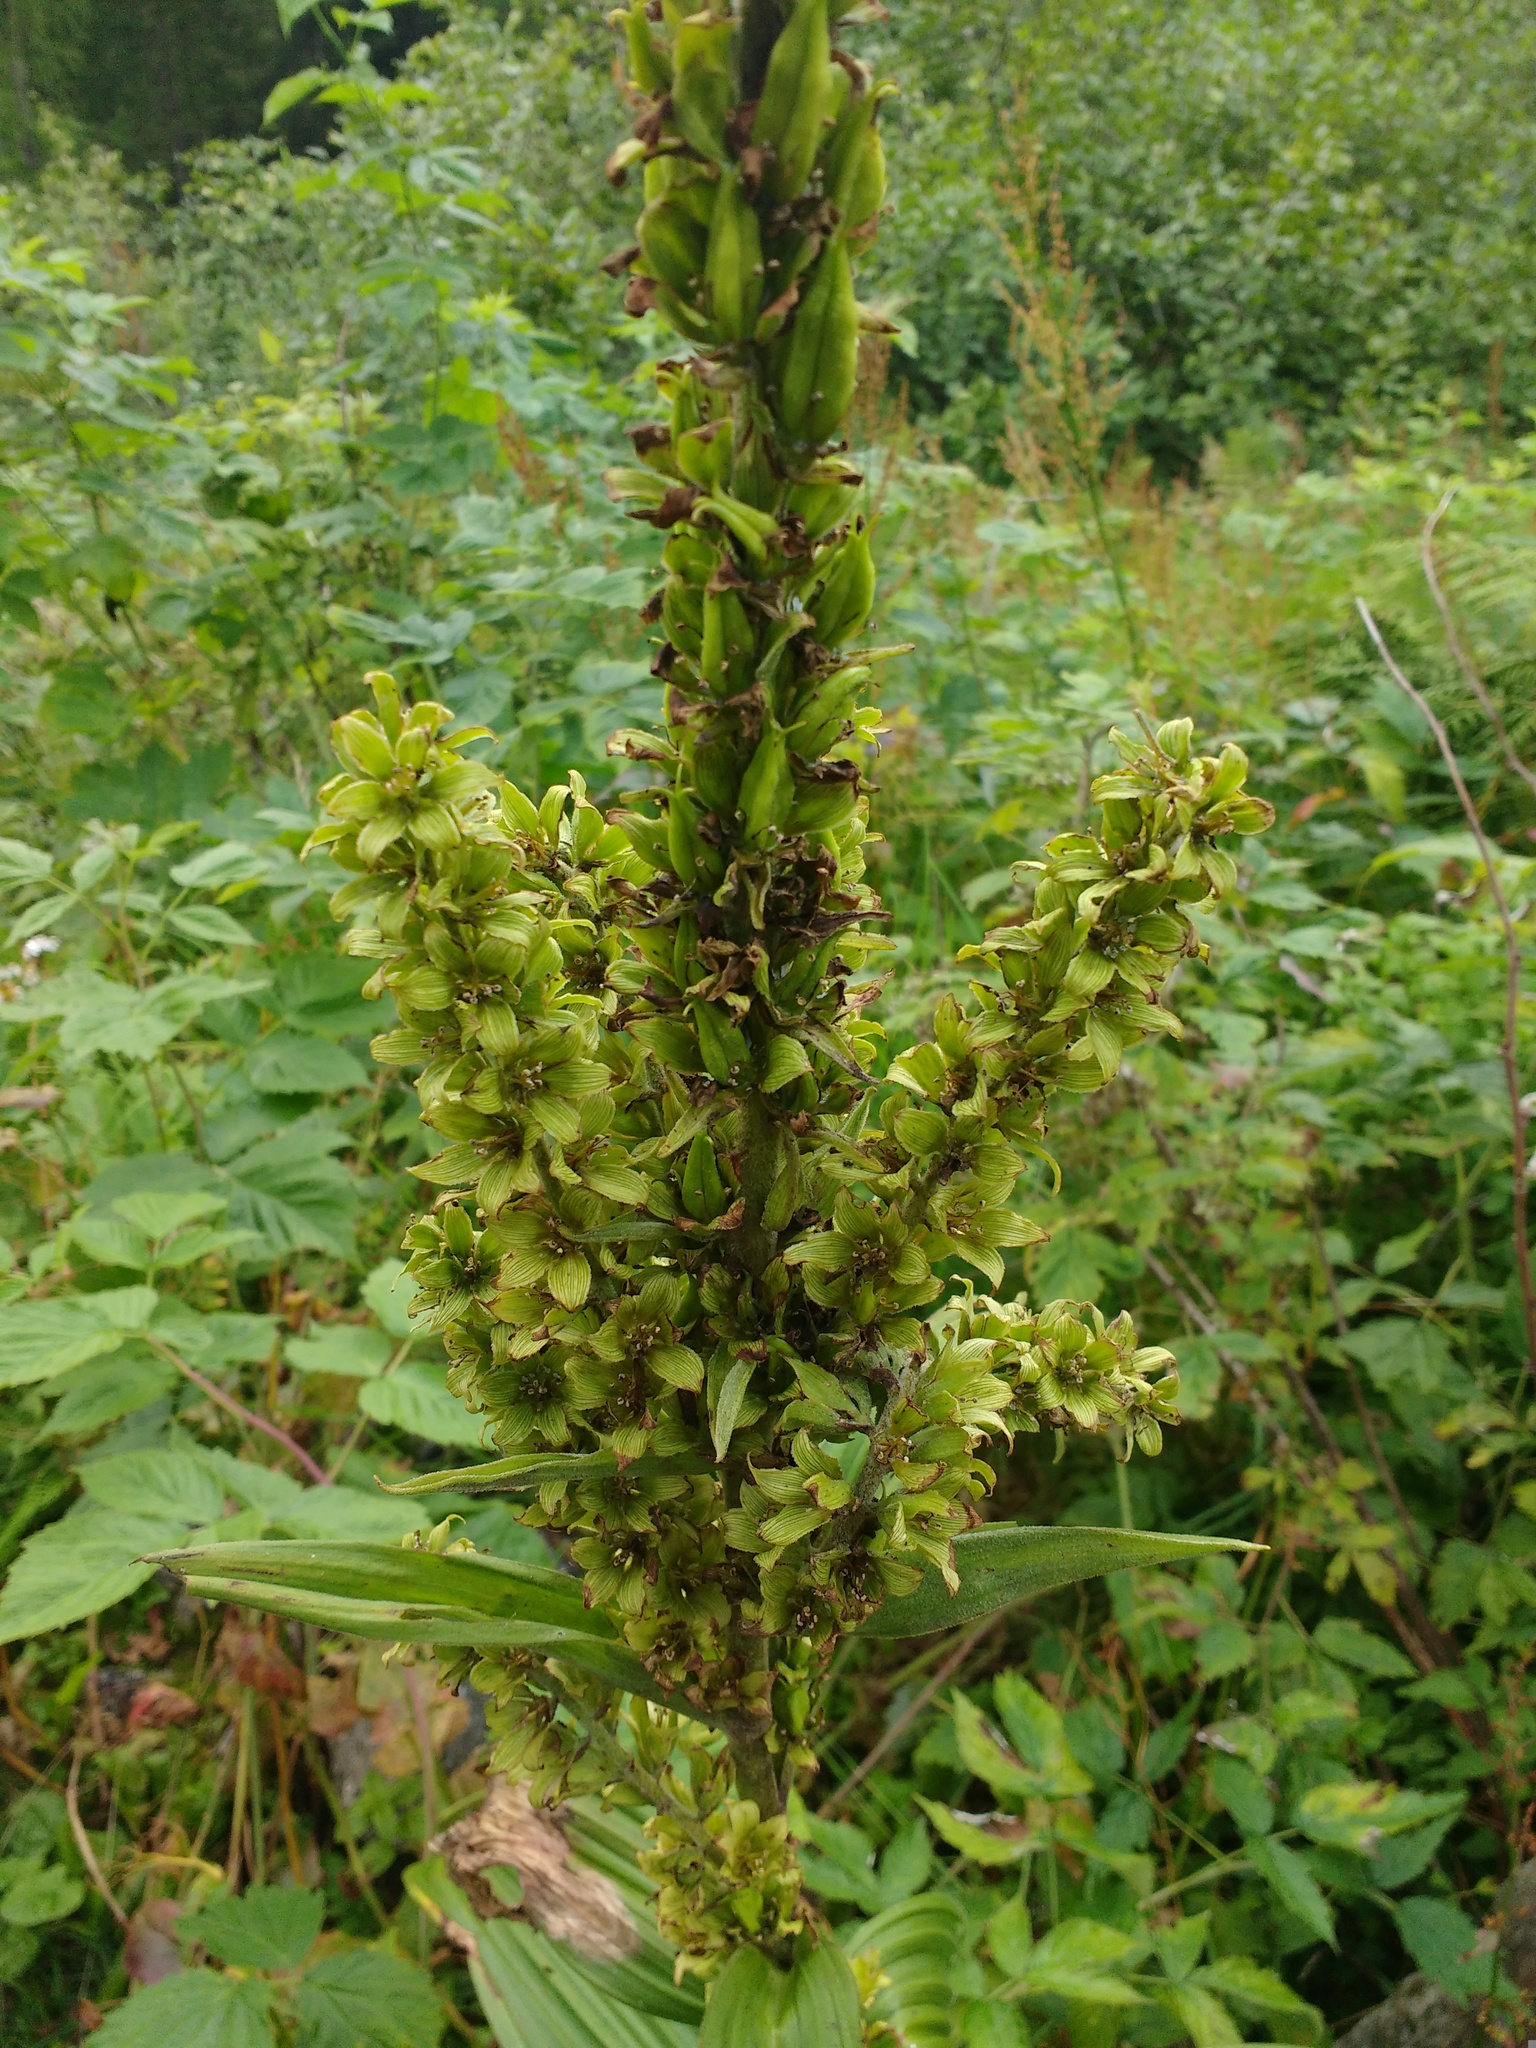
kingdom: Plantae
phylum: Tracheophyta
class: Liliopsida
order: Liliales
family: Melanthiaceae
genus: Veratrum
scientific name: Veratrum lobelianum
